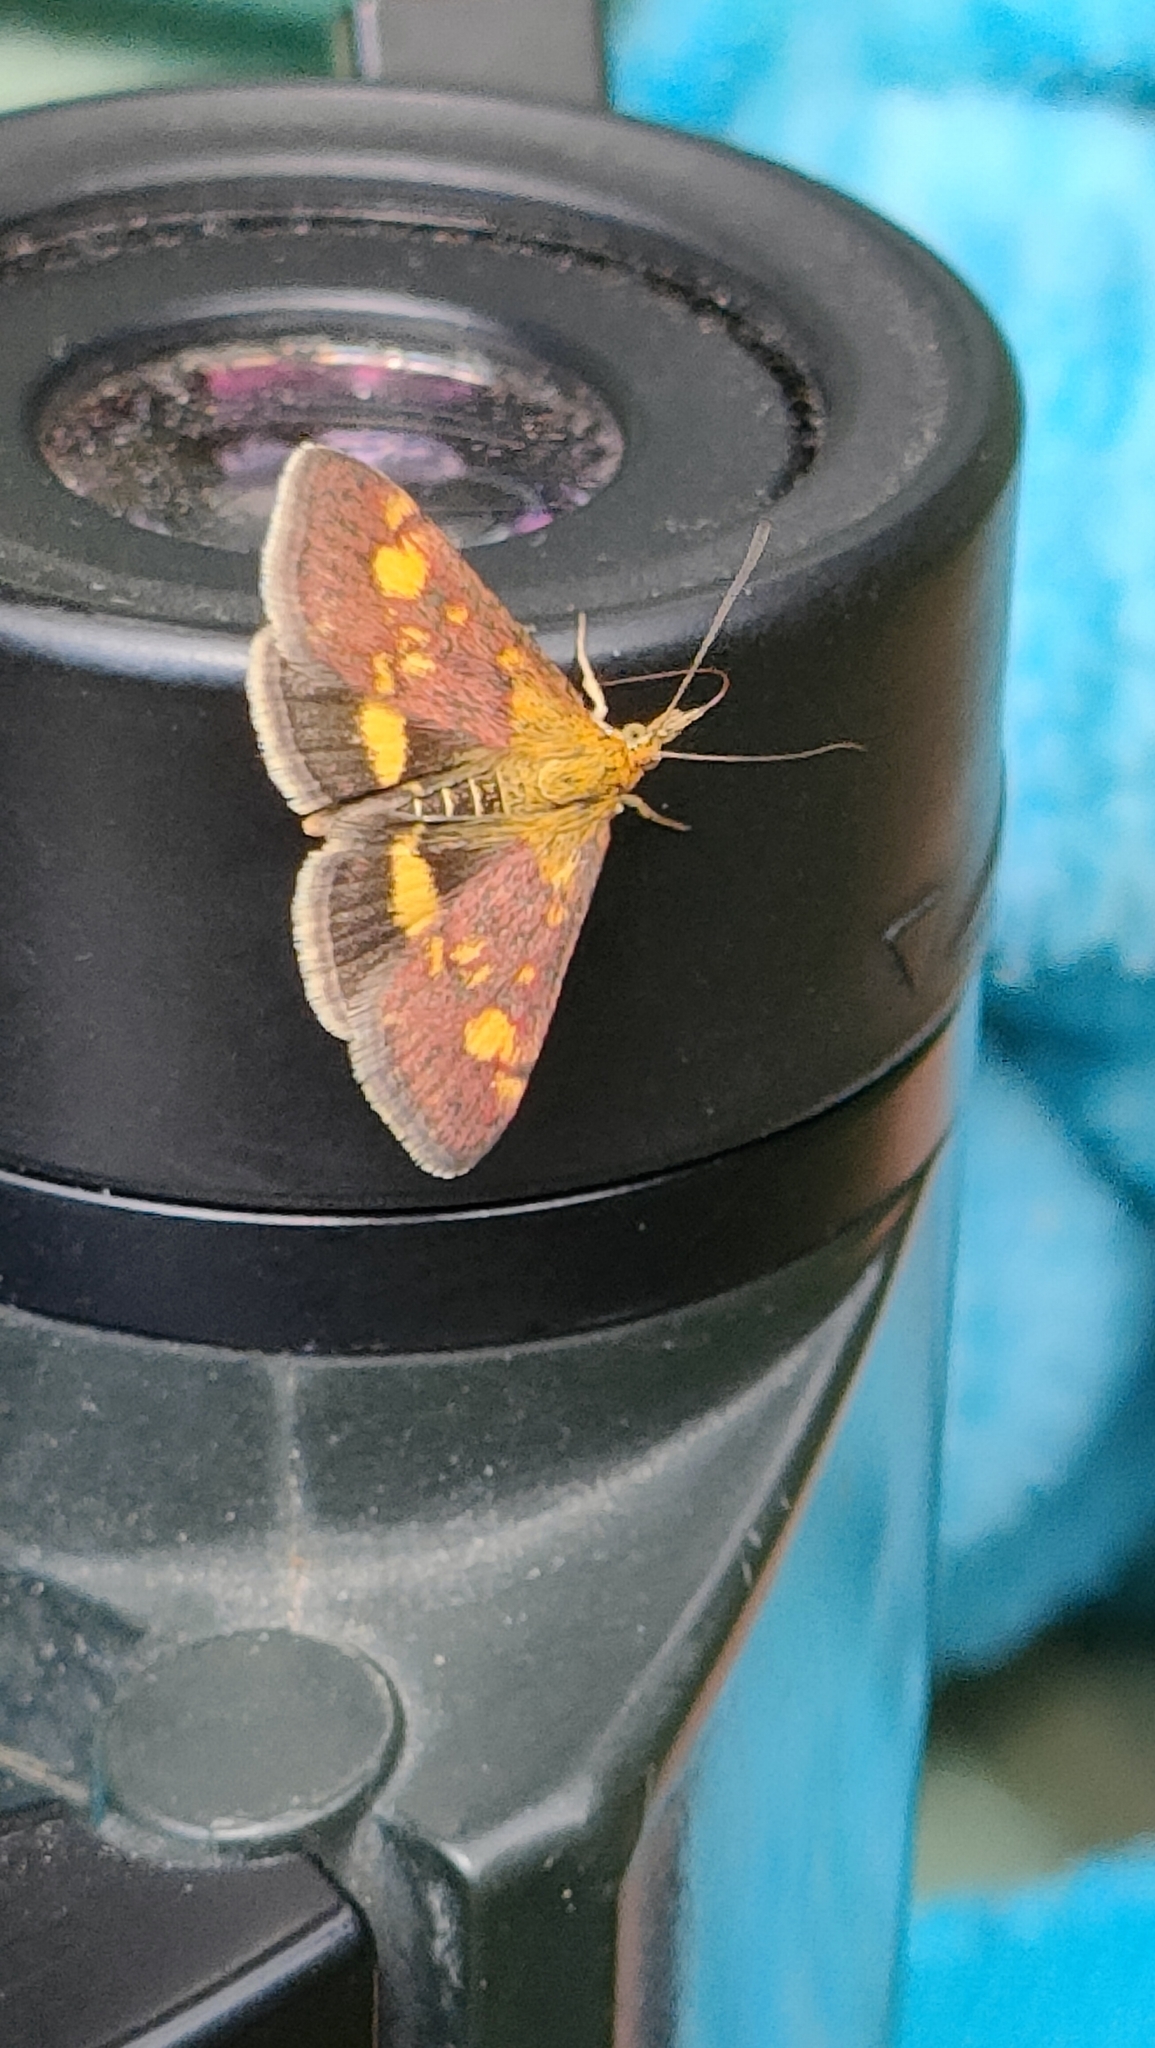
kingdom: Animalia
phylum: Arthropoda
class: Insecta
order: Lepidoptera
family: Crambidae
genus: Pyrausta
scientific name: Pyrausta aurata
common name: Small purple & gold
